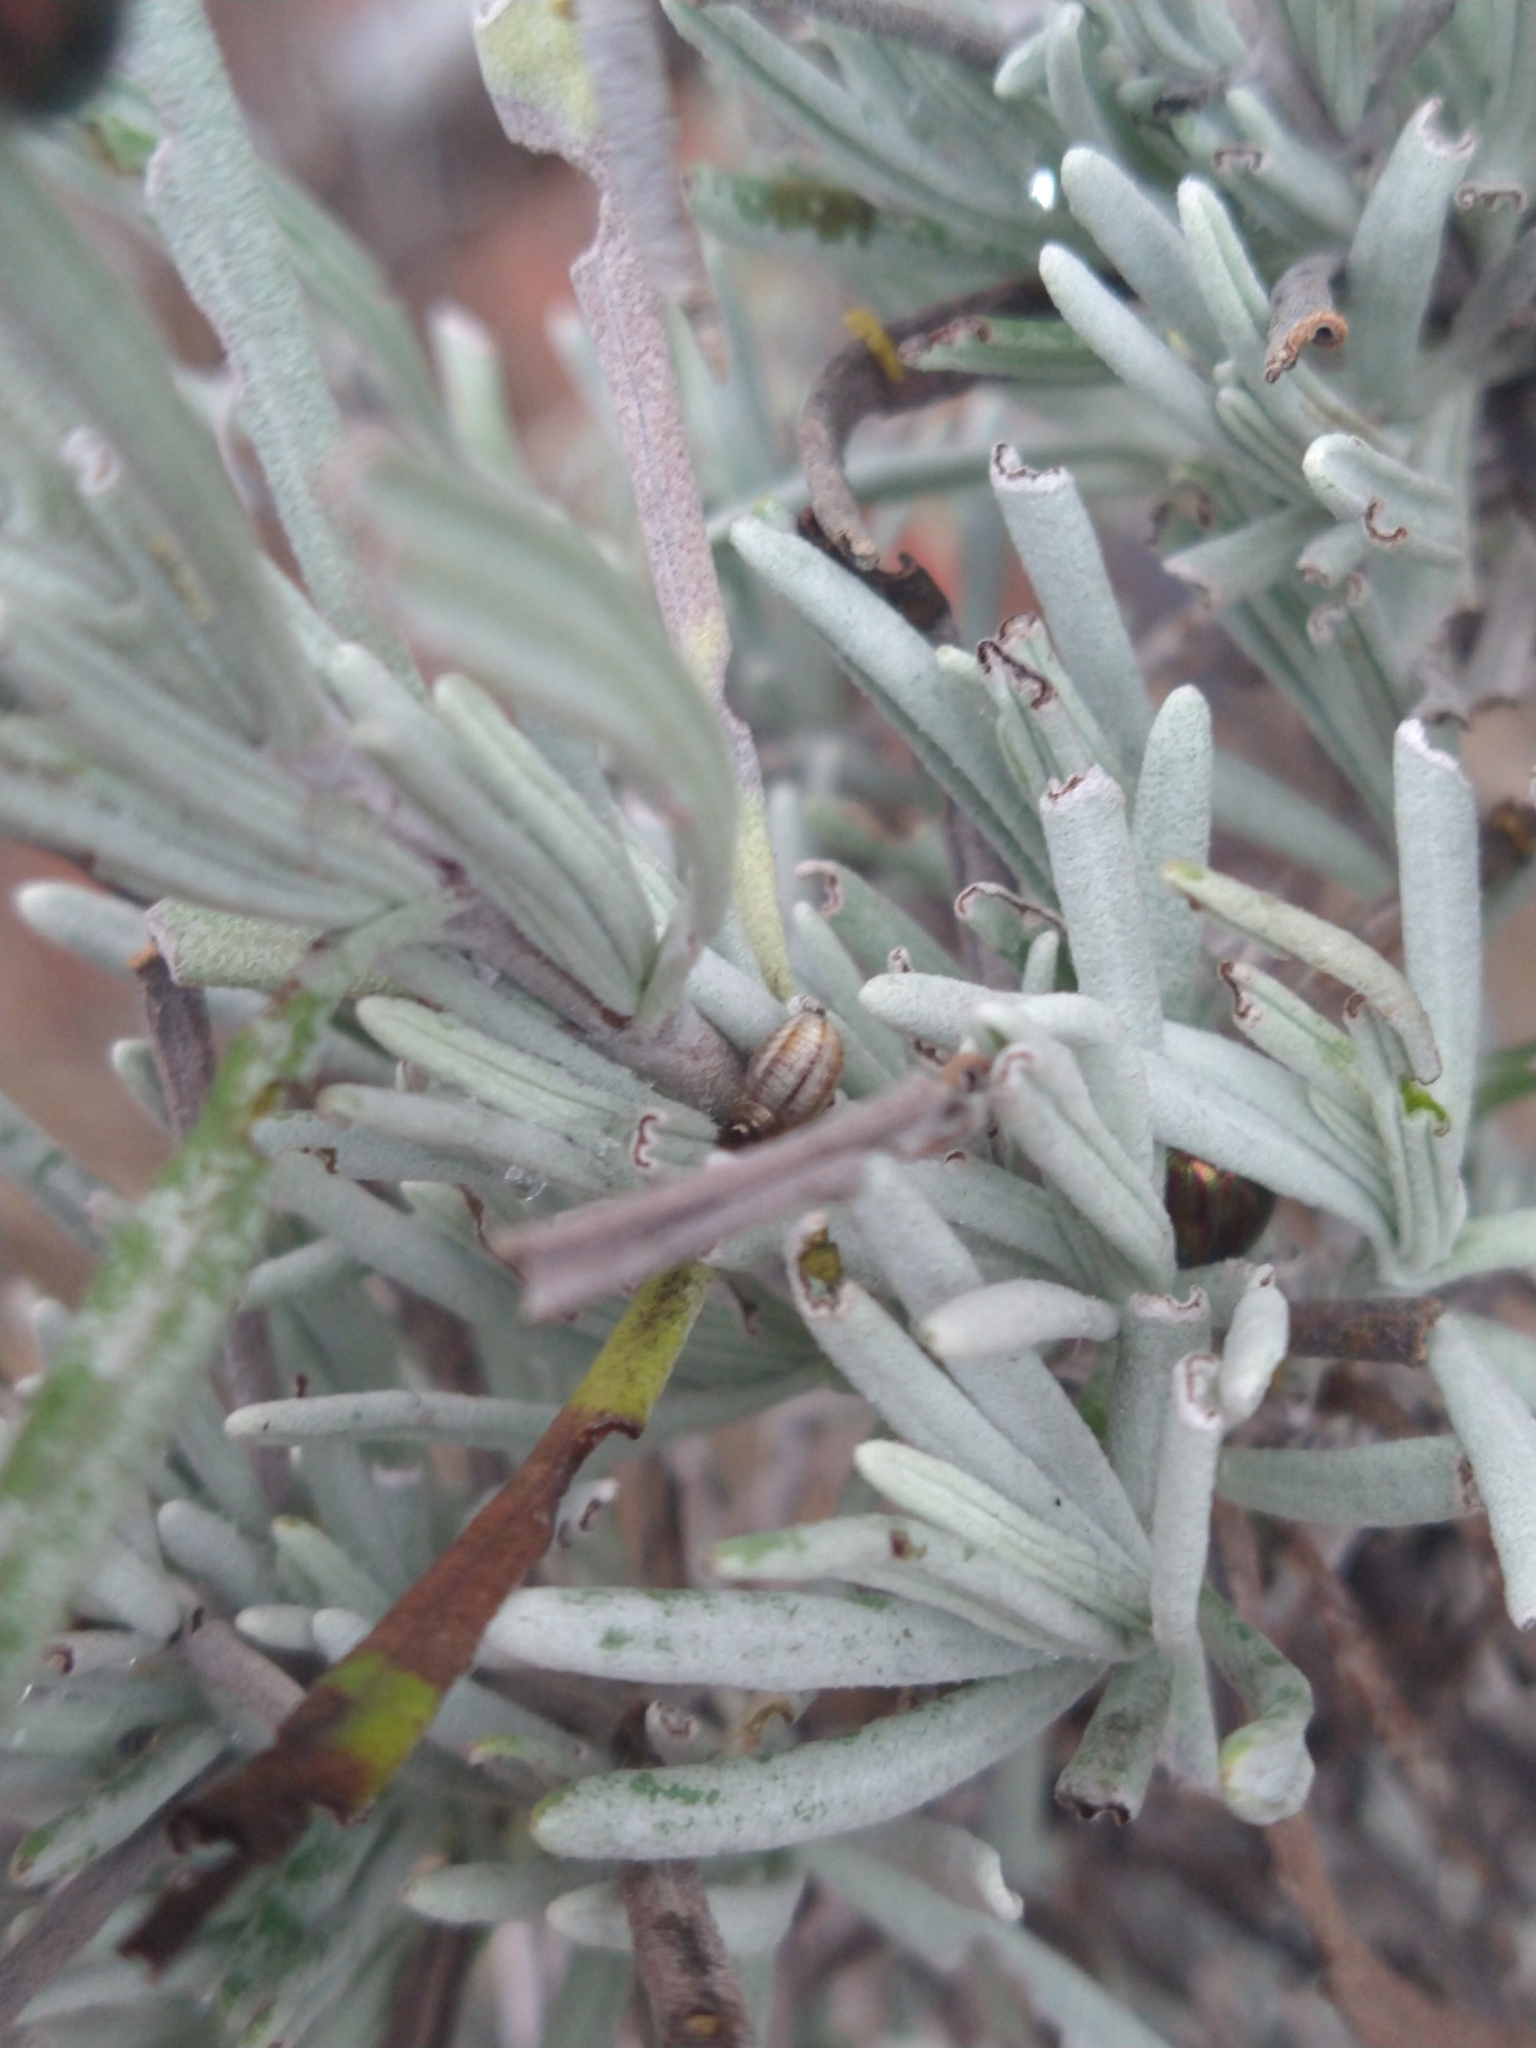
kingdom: Animalia
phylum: Arthropoda
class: Insecta
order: Coleoptera
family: Chrysomelidae
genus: Chrysolina
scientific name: Chrysolina americana
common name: Rosemary beetle
